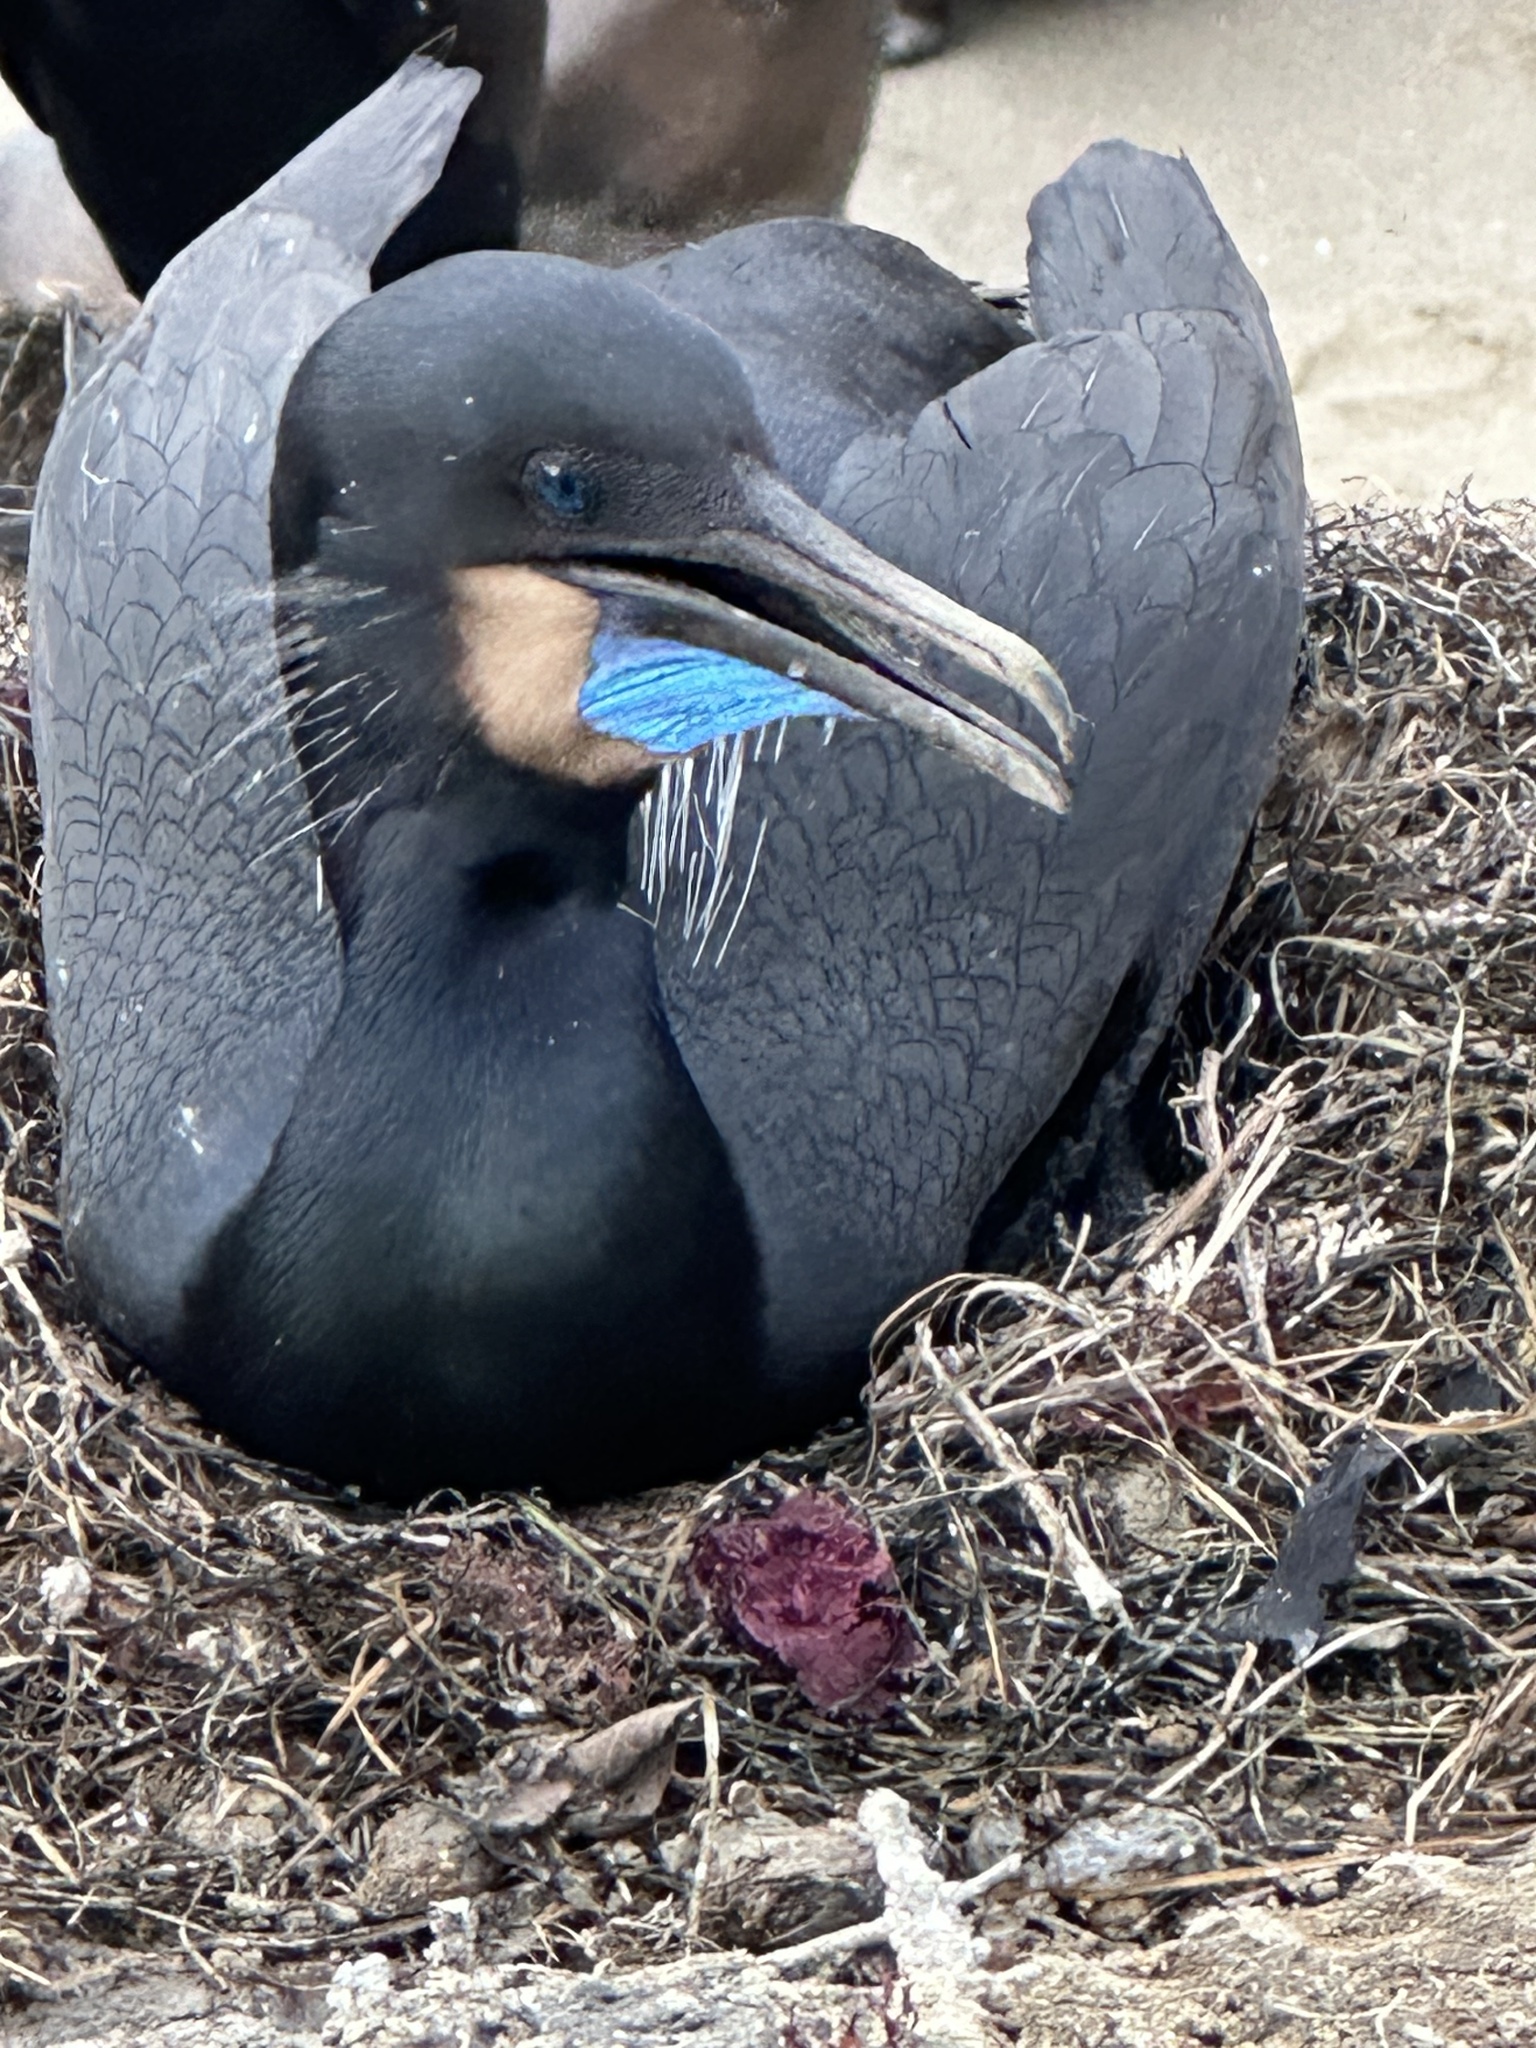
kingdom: Animalia
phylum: Chordata
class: Aves
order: Suliformes
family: Phalacrocoracidae
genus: Urile
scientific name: Urile penicillatus
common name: Brandt's cormorant
